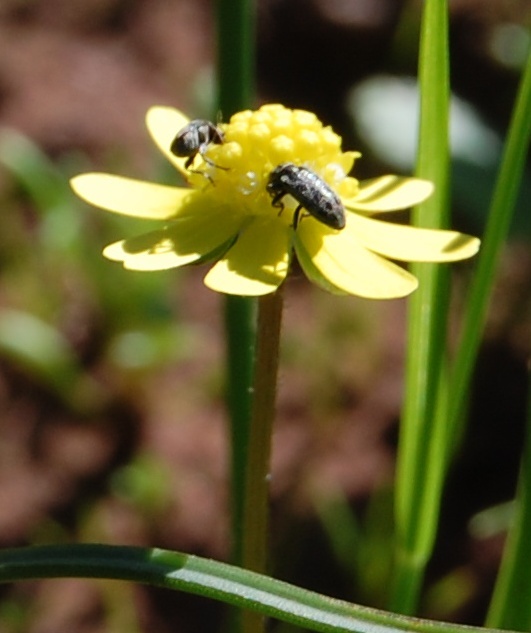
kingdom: Plantae
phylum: Tracheophyta
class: Magnoliopsida
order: Asterales
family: Asteraceae
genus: Blennosperma
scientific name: Blennosperma nanum
